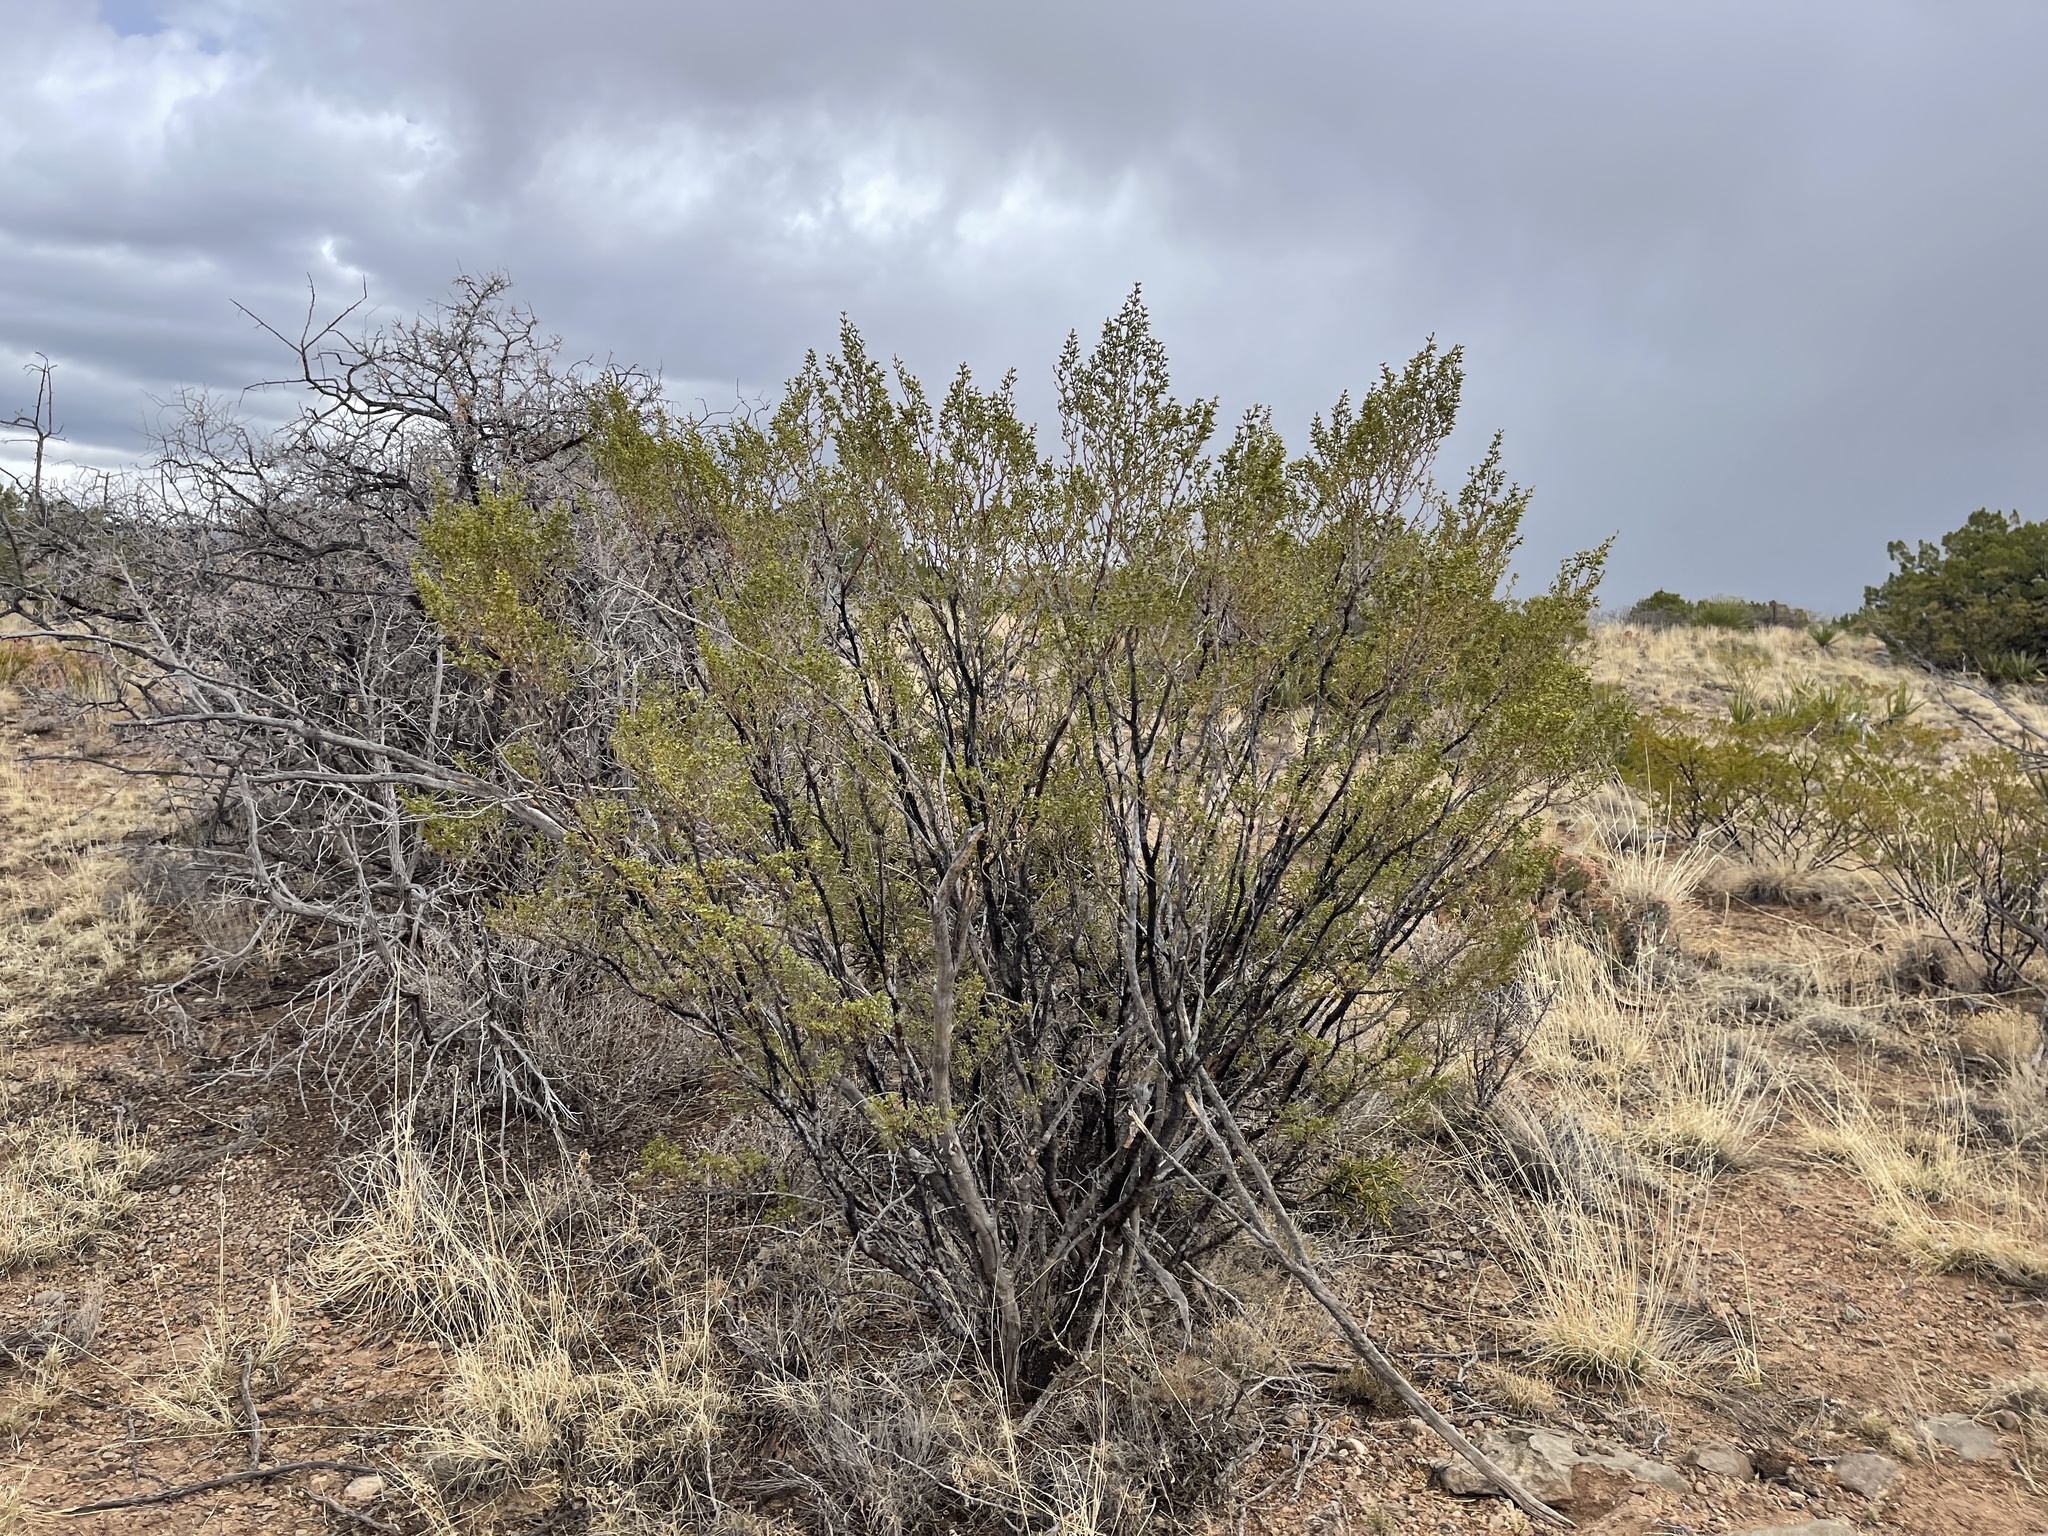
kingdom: Plantae
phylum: Tracheophyta
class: Magnoliopsida
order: Zygophyllales
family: Zygophyllaceae
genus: Larrea
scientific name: Larrea tridentata
